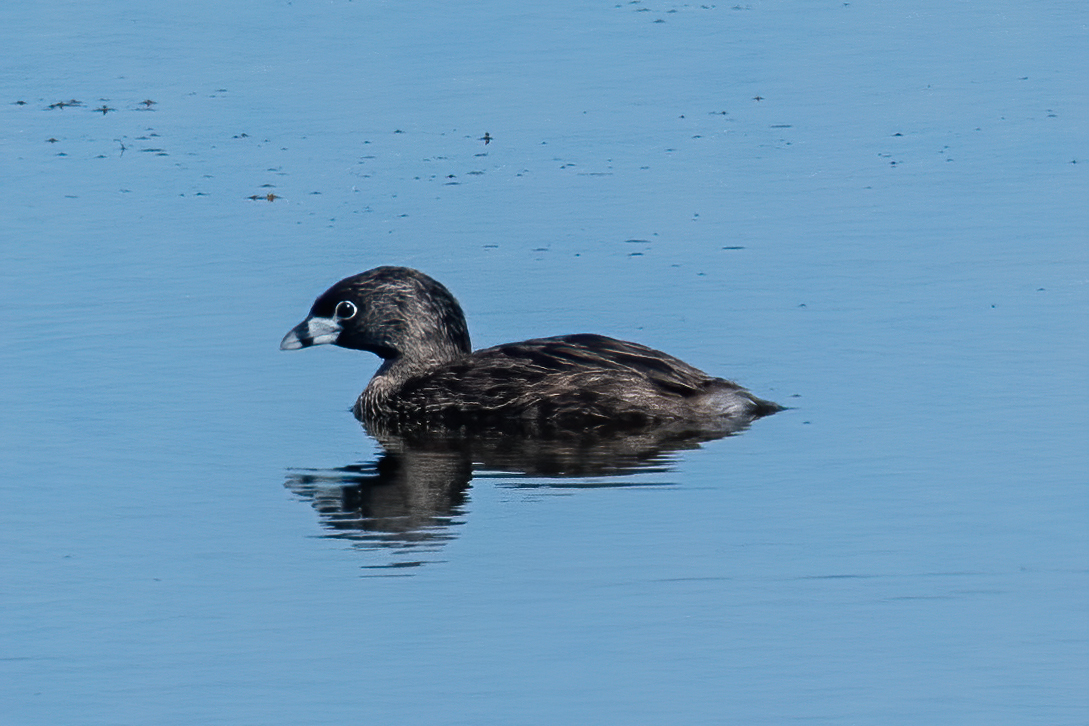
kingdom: Animalia
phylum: Chordata
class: Aves
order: Podicipediformes
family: Podicipedidae
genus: Podilymbus
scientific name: Podilymbus podiceps
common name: Pied-billed grebe
